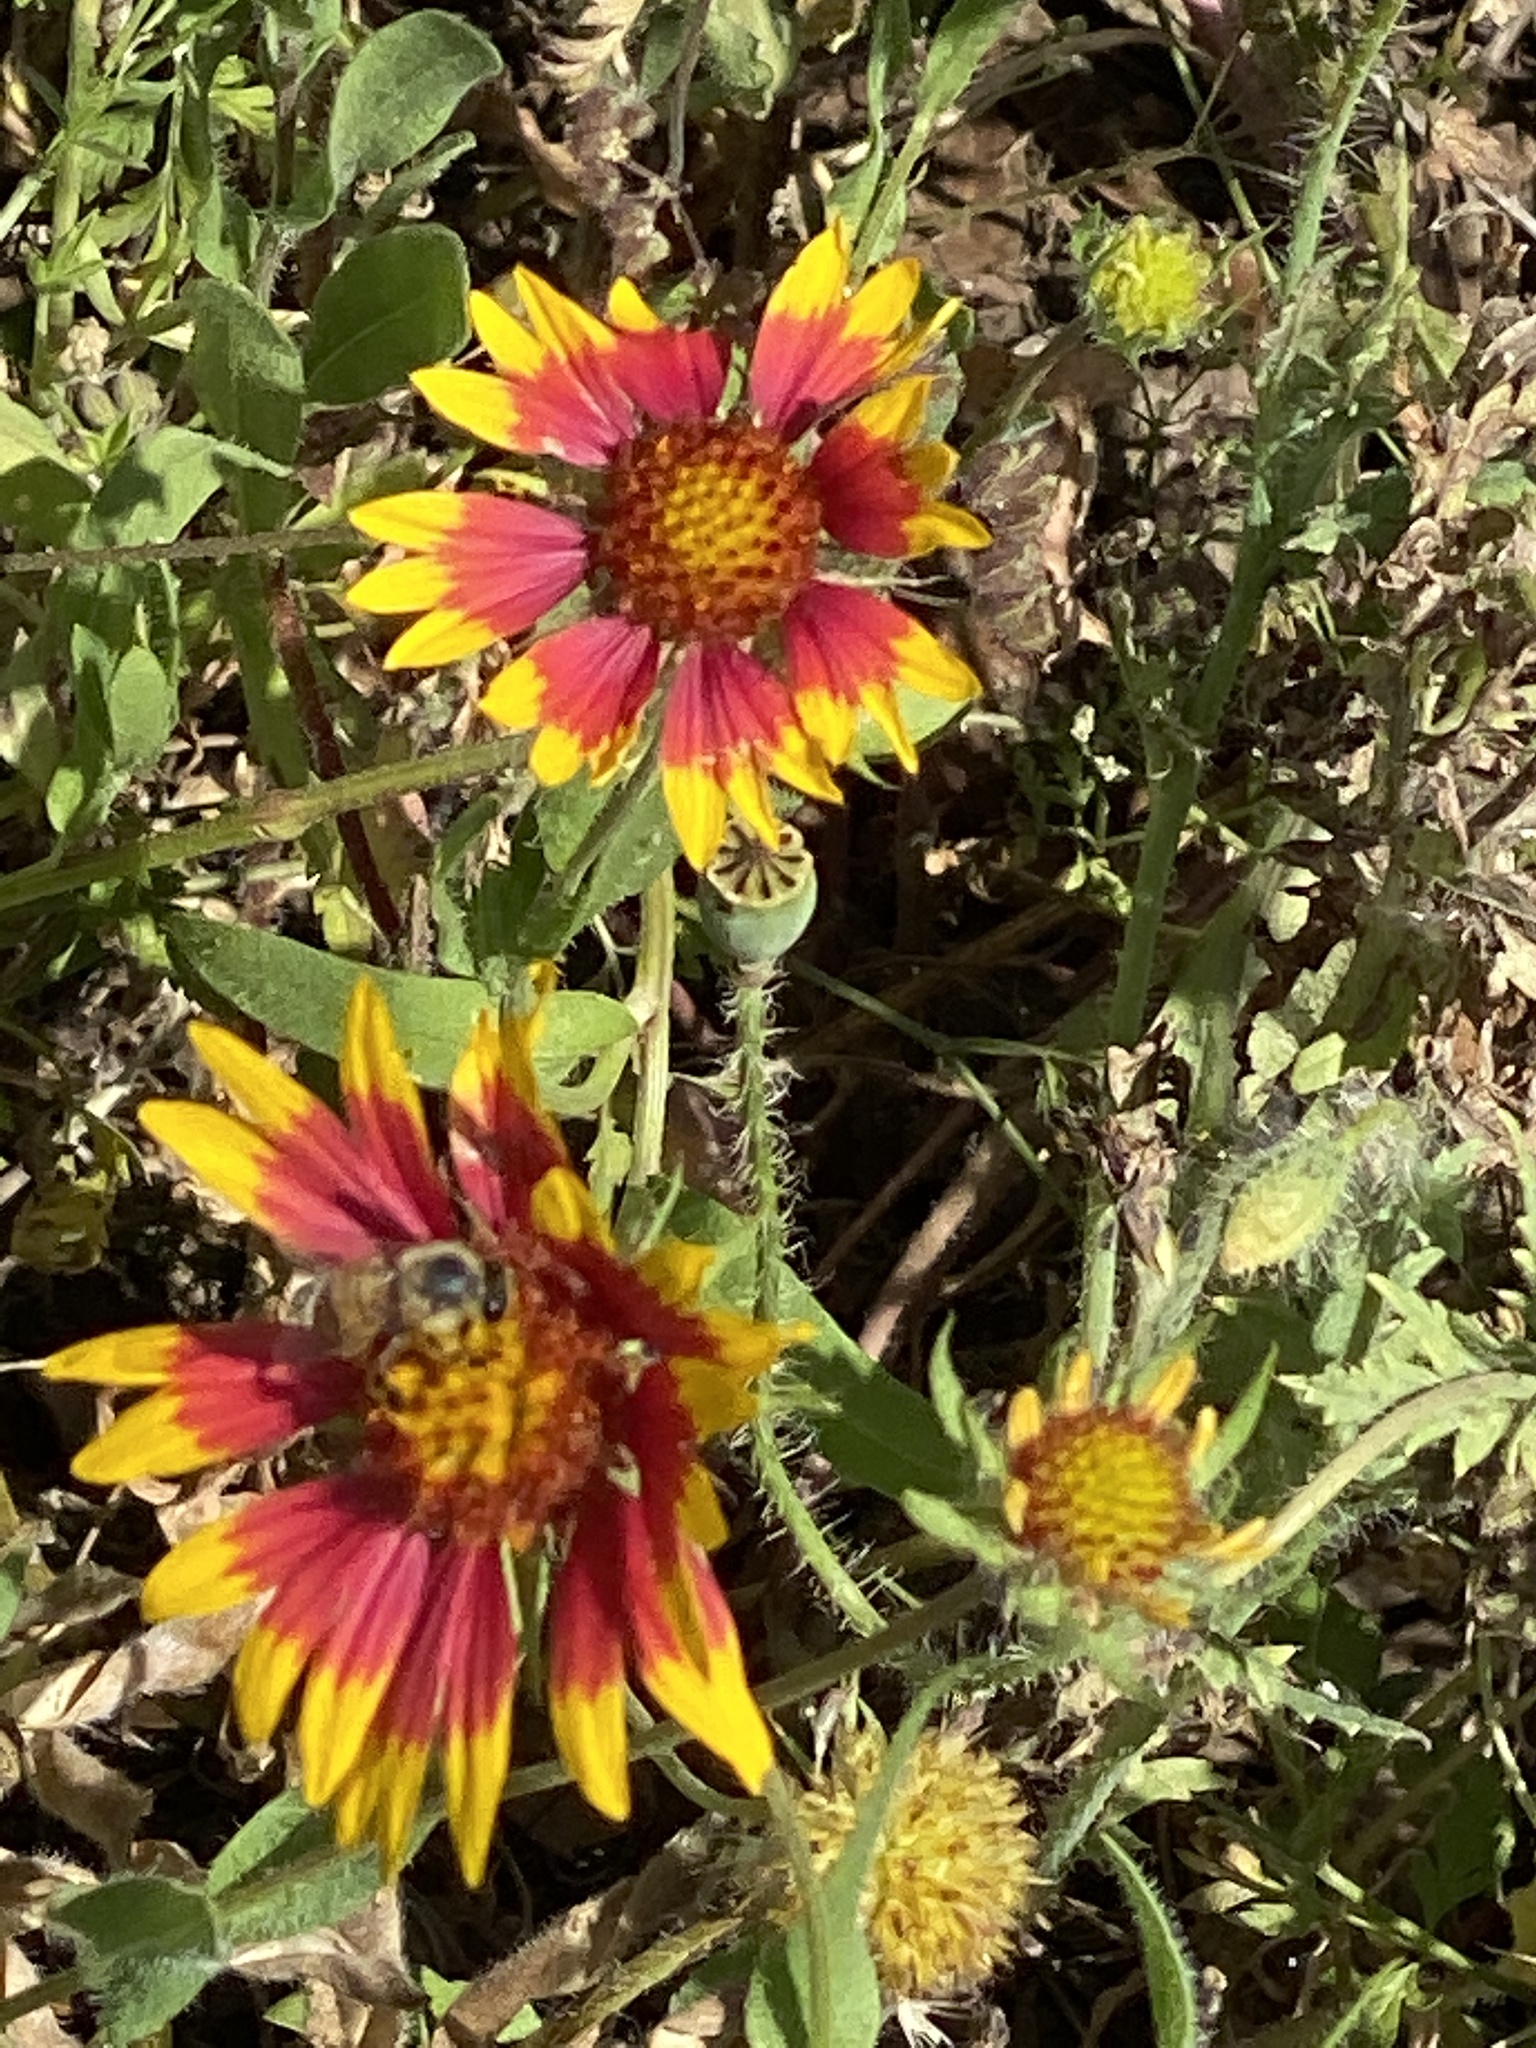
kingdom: Plantae
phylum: Tracheophyta
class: Magnoliopsida
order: Asterales
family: Asteraceae
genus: Gaillardia
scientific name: Gaillardia pulchella
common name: Firewheel
